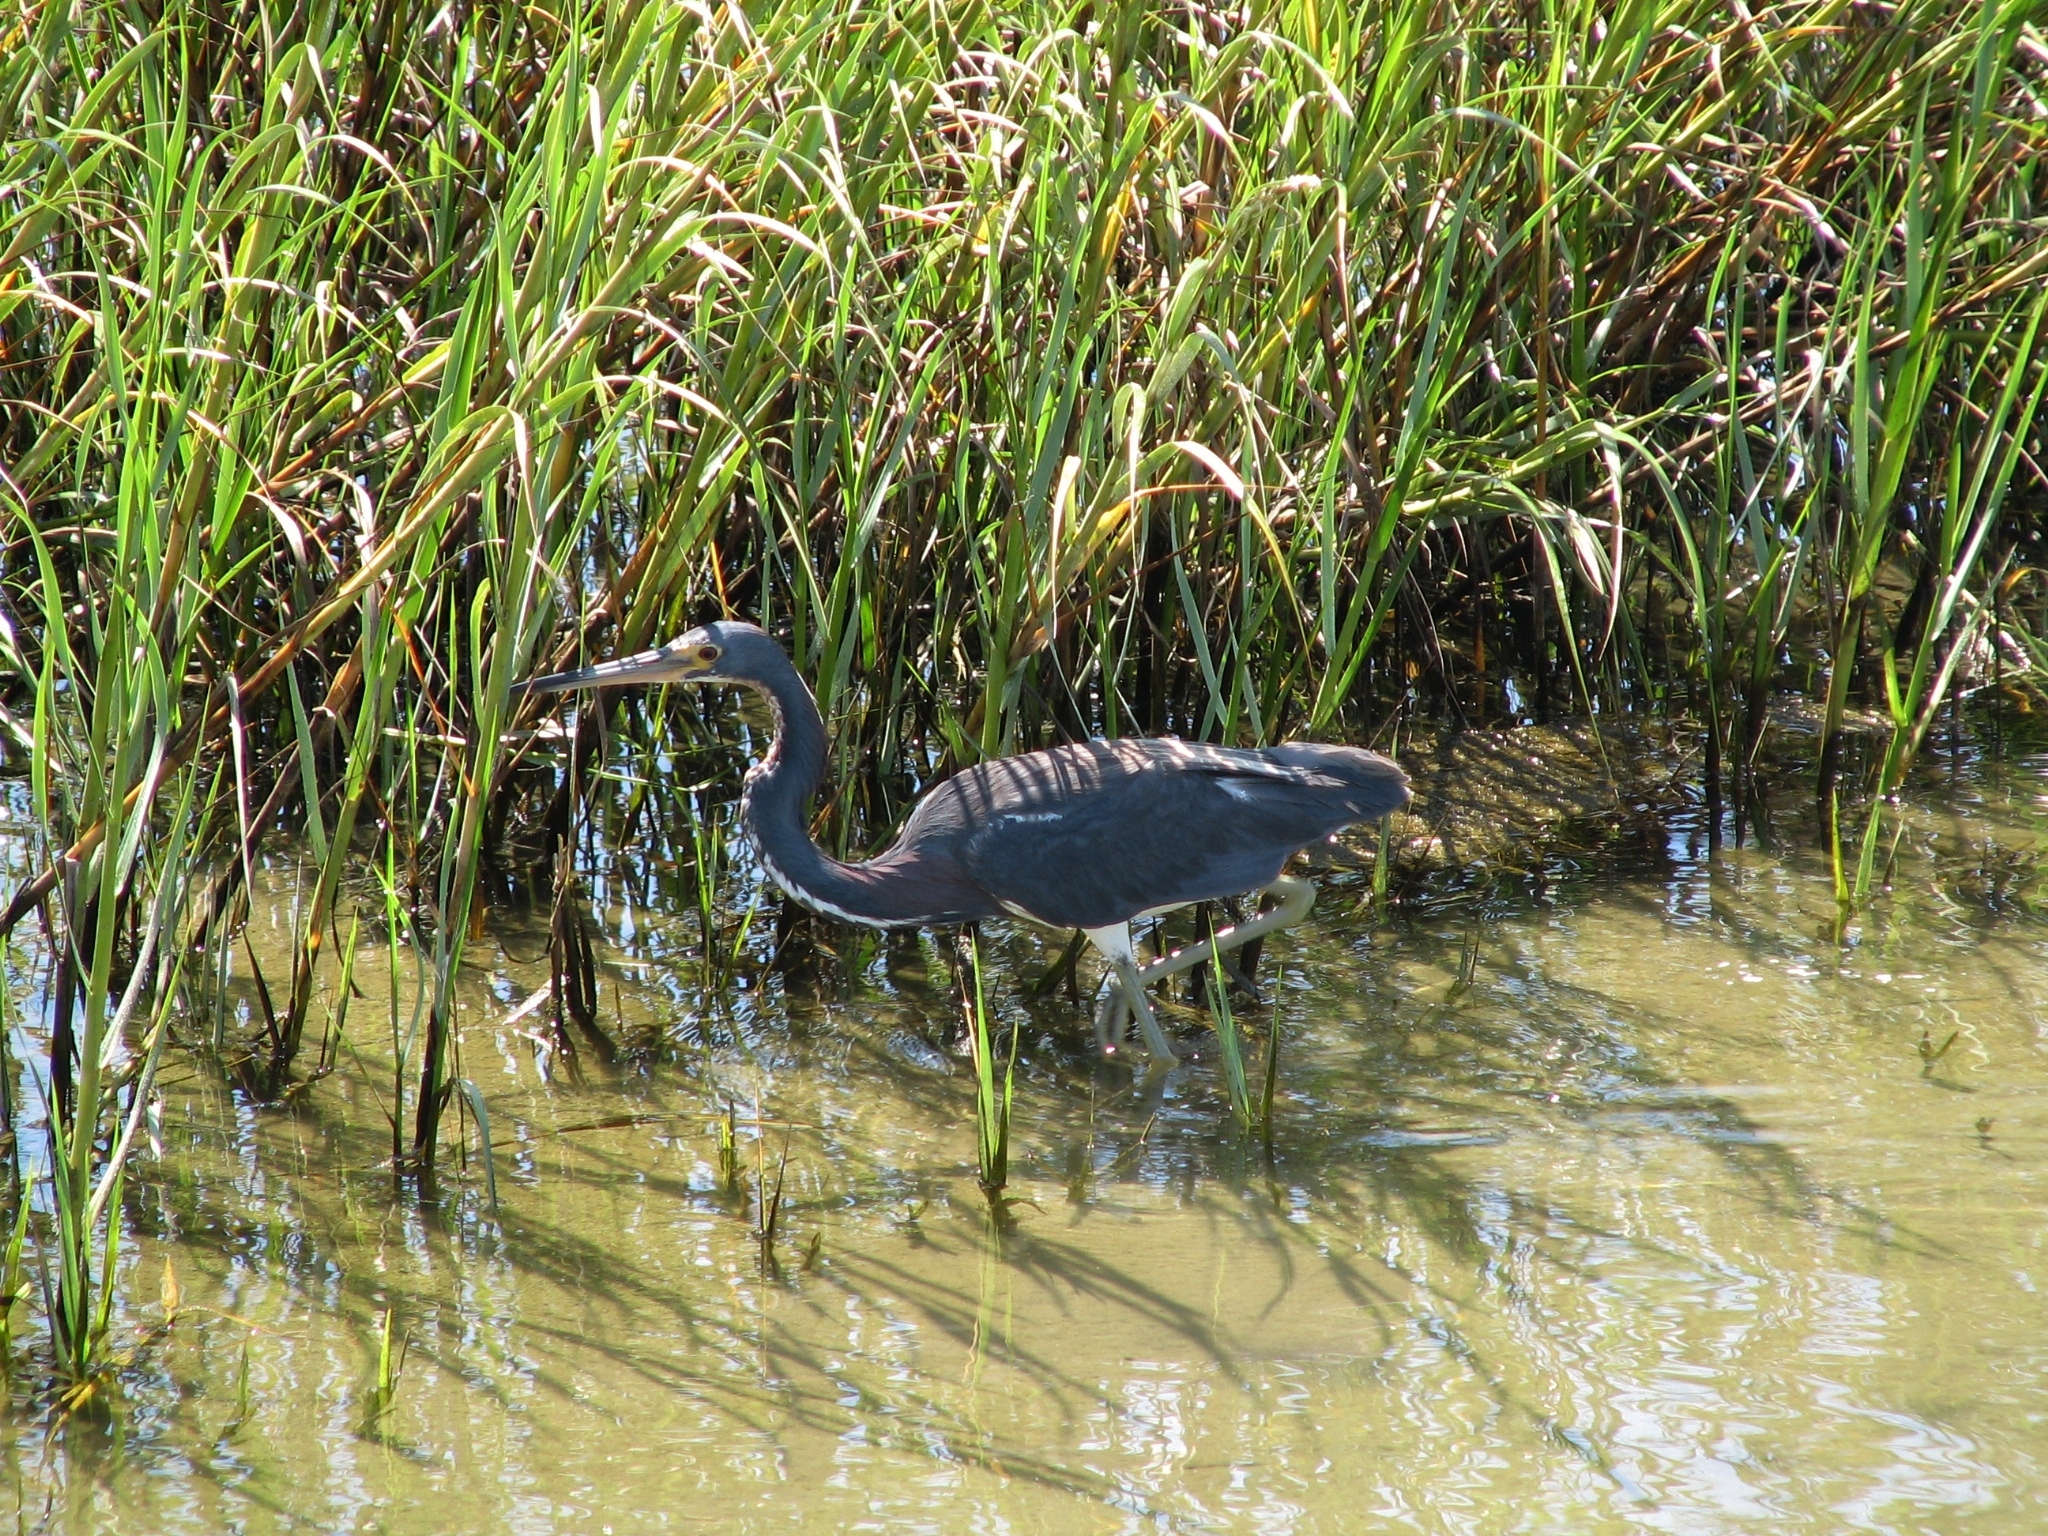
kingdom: Animalia
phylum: Chordata
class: Aves
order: Pelecaniformes
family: Ardeidae
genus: Egretta
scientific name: Egretta tricolor
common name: Tricolored heron
